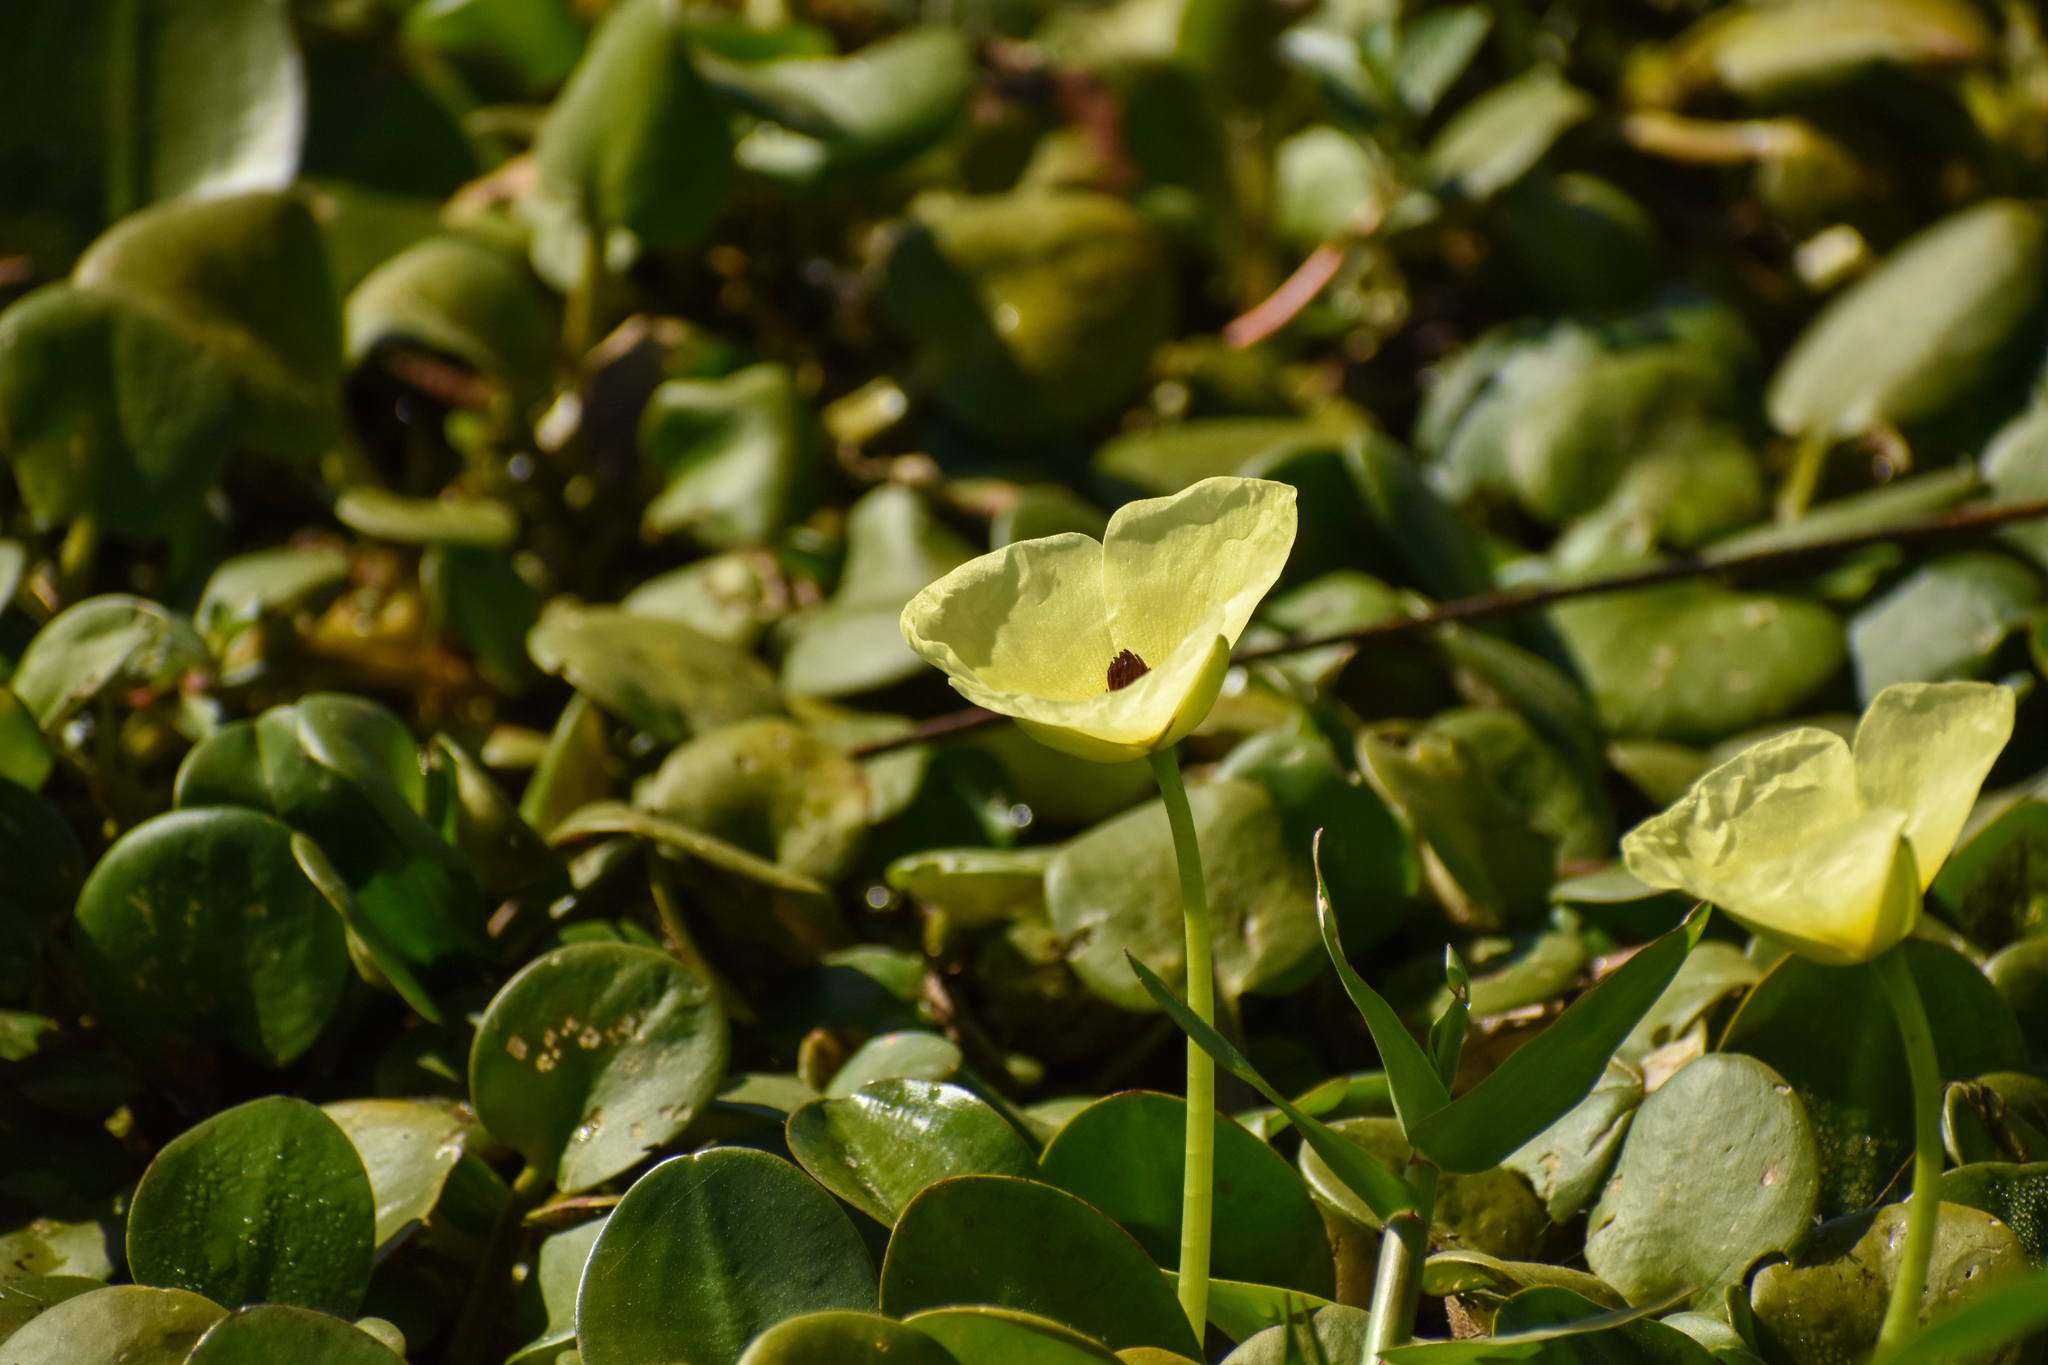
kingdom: Plantae
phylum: Tracheophyta
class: Liliopsida
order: Asparagales
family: Iridaceae
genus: Dietes
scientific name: Dietes bicolor
